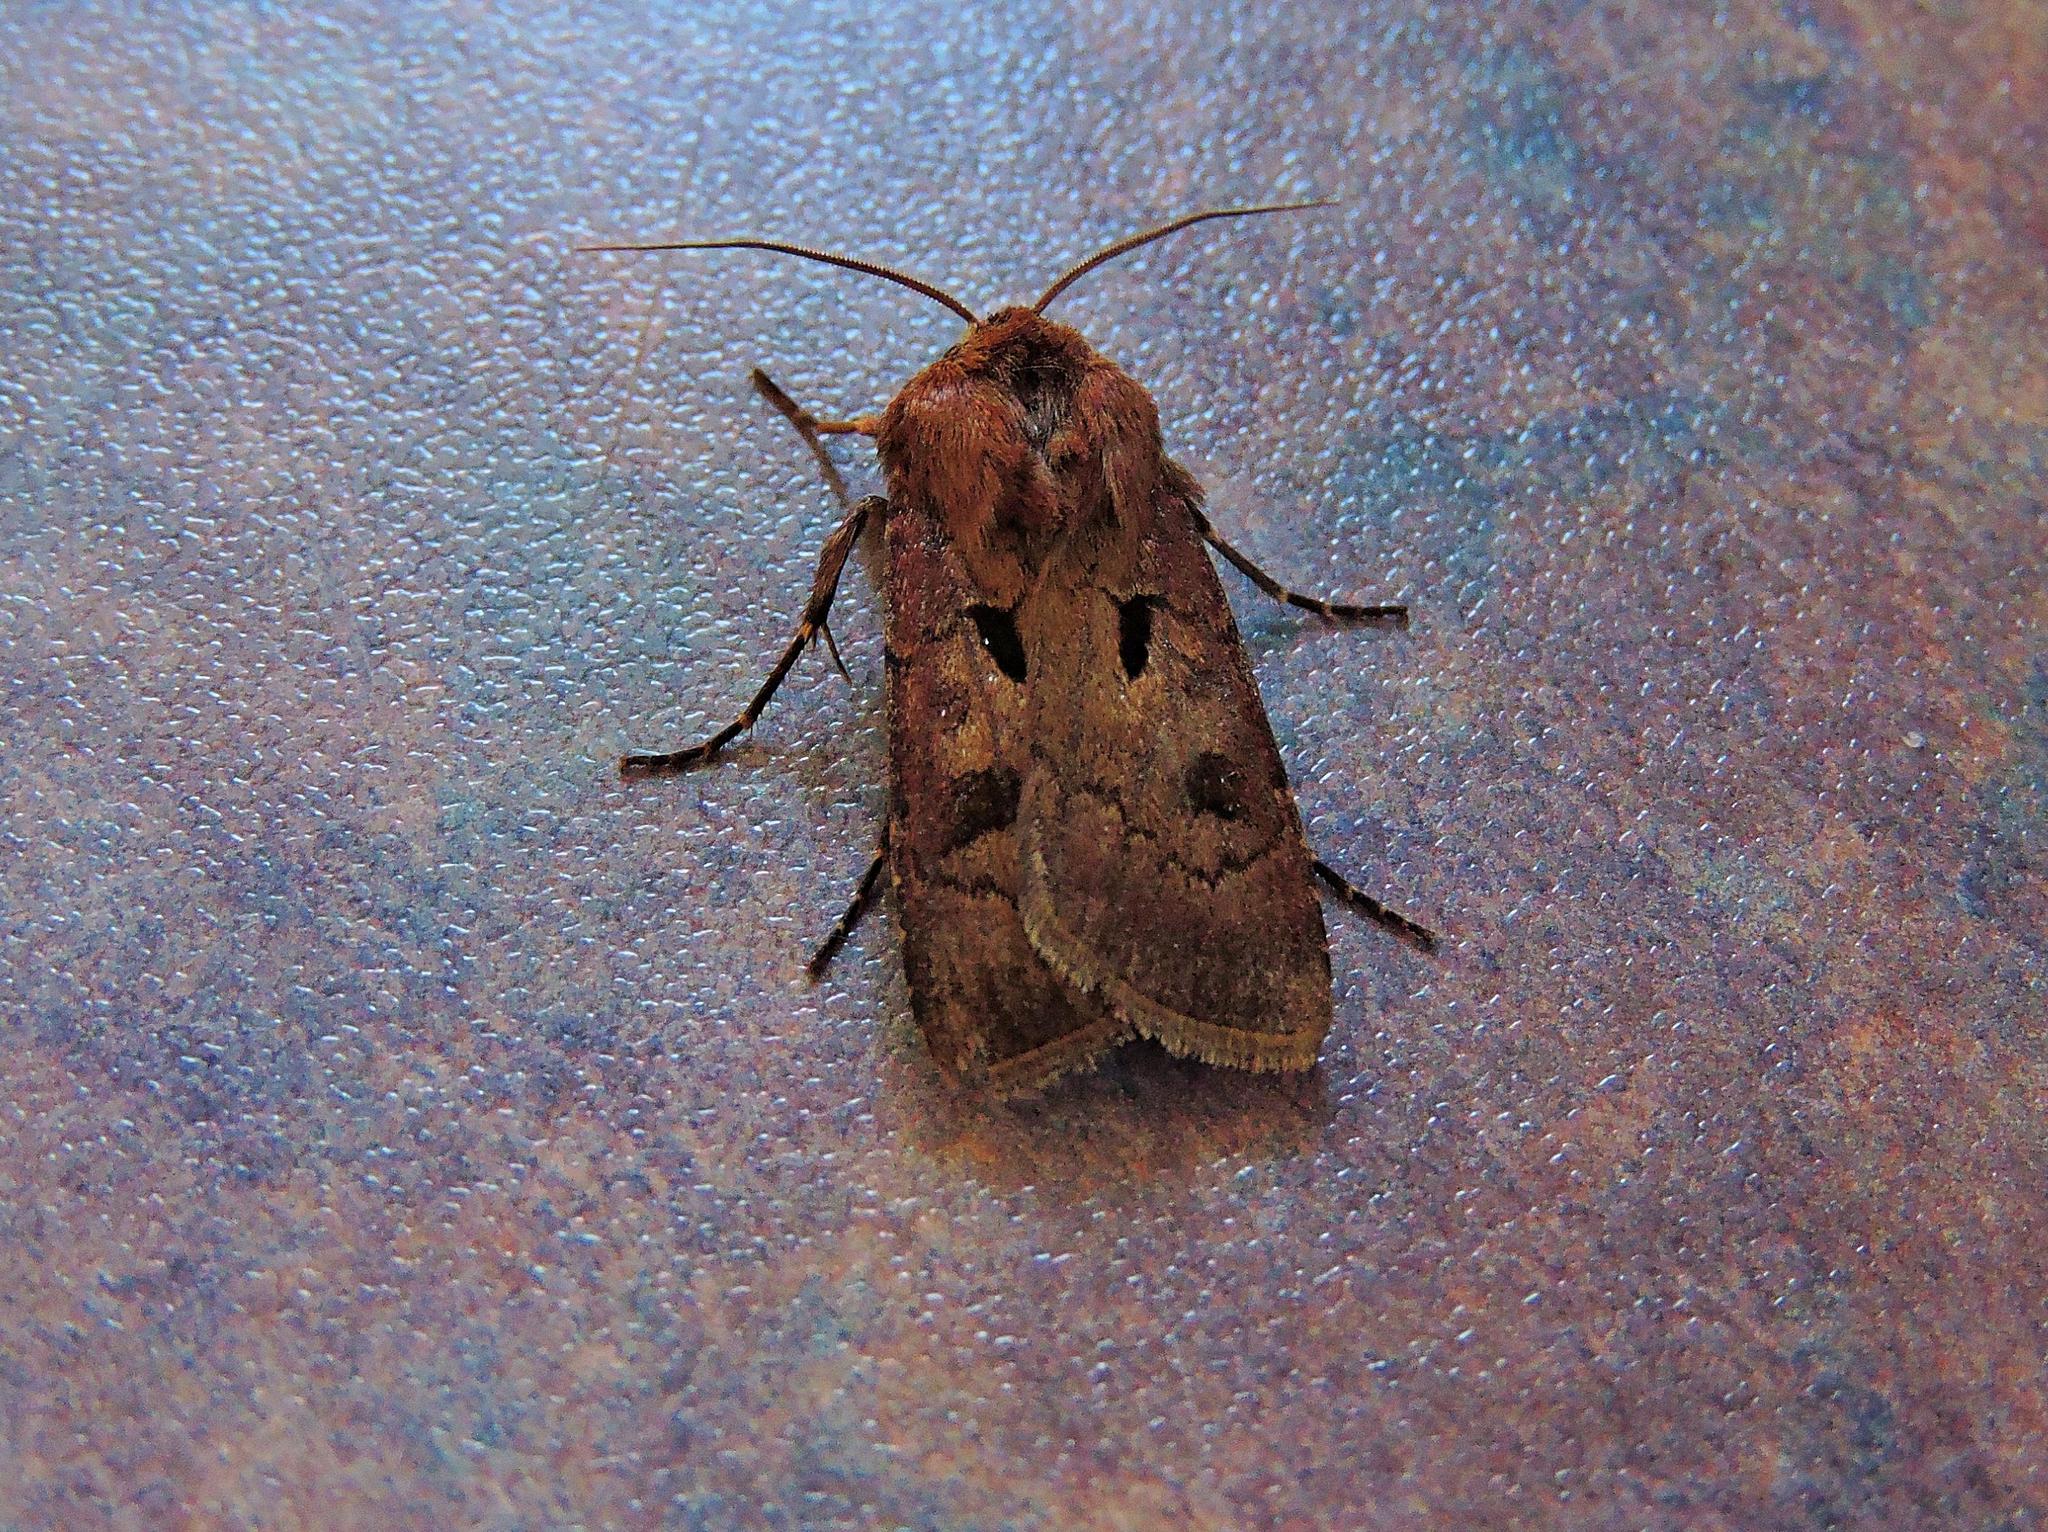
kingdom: Animalia
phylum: Arthropoda
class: Insecta
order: Lepidoptera
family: Noctuidae
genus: Agrotis
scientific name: Agrotis exclamationis
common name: Heart and dart
